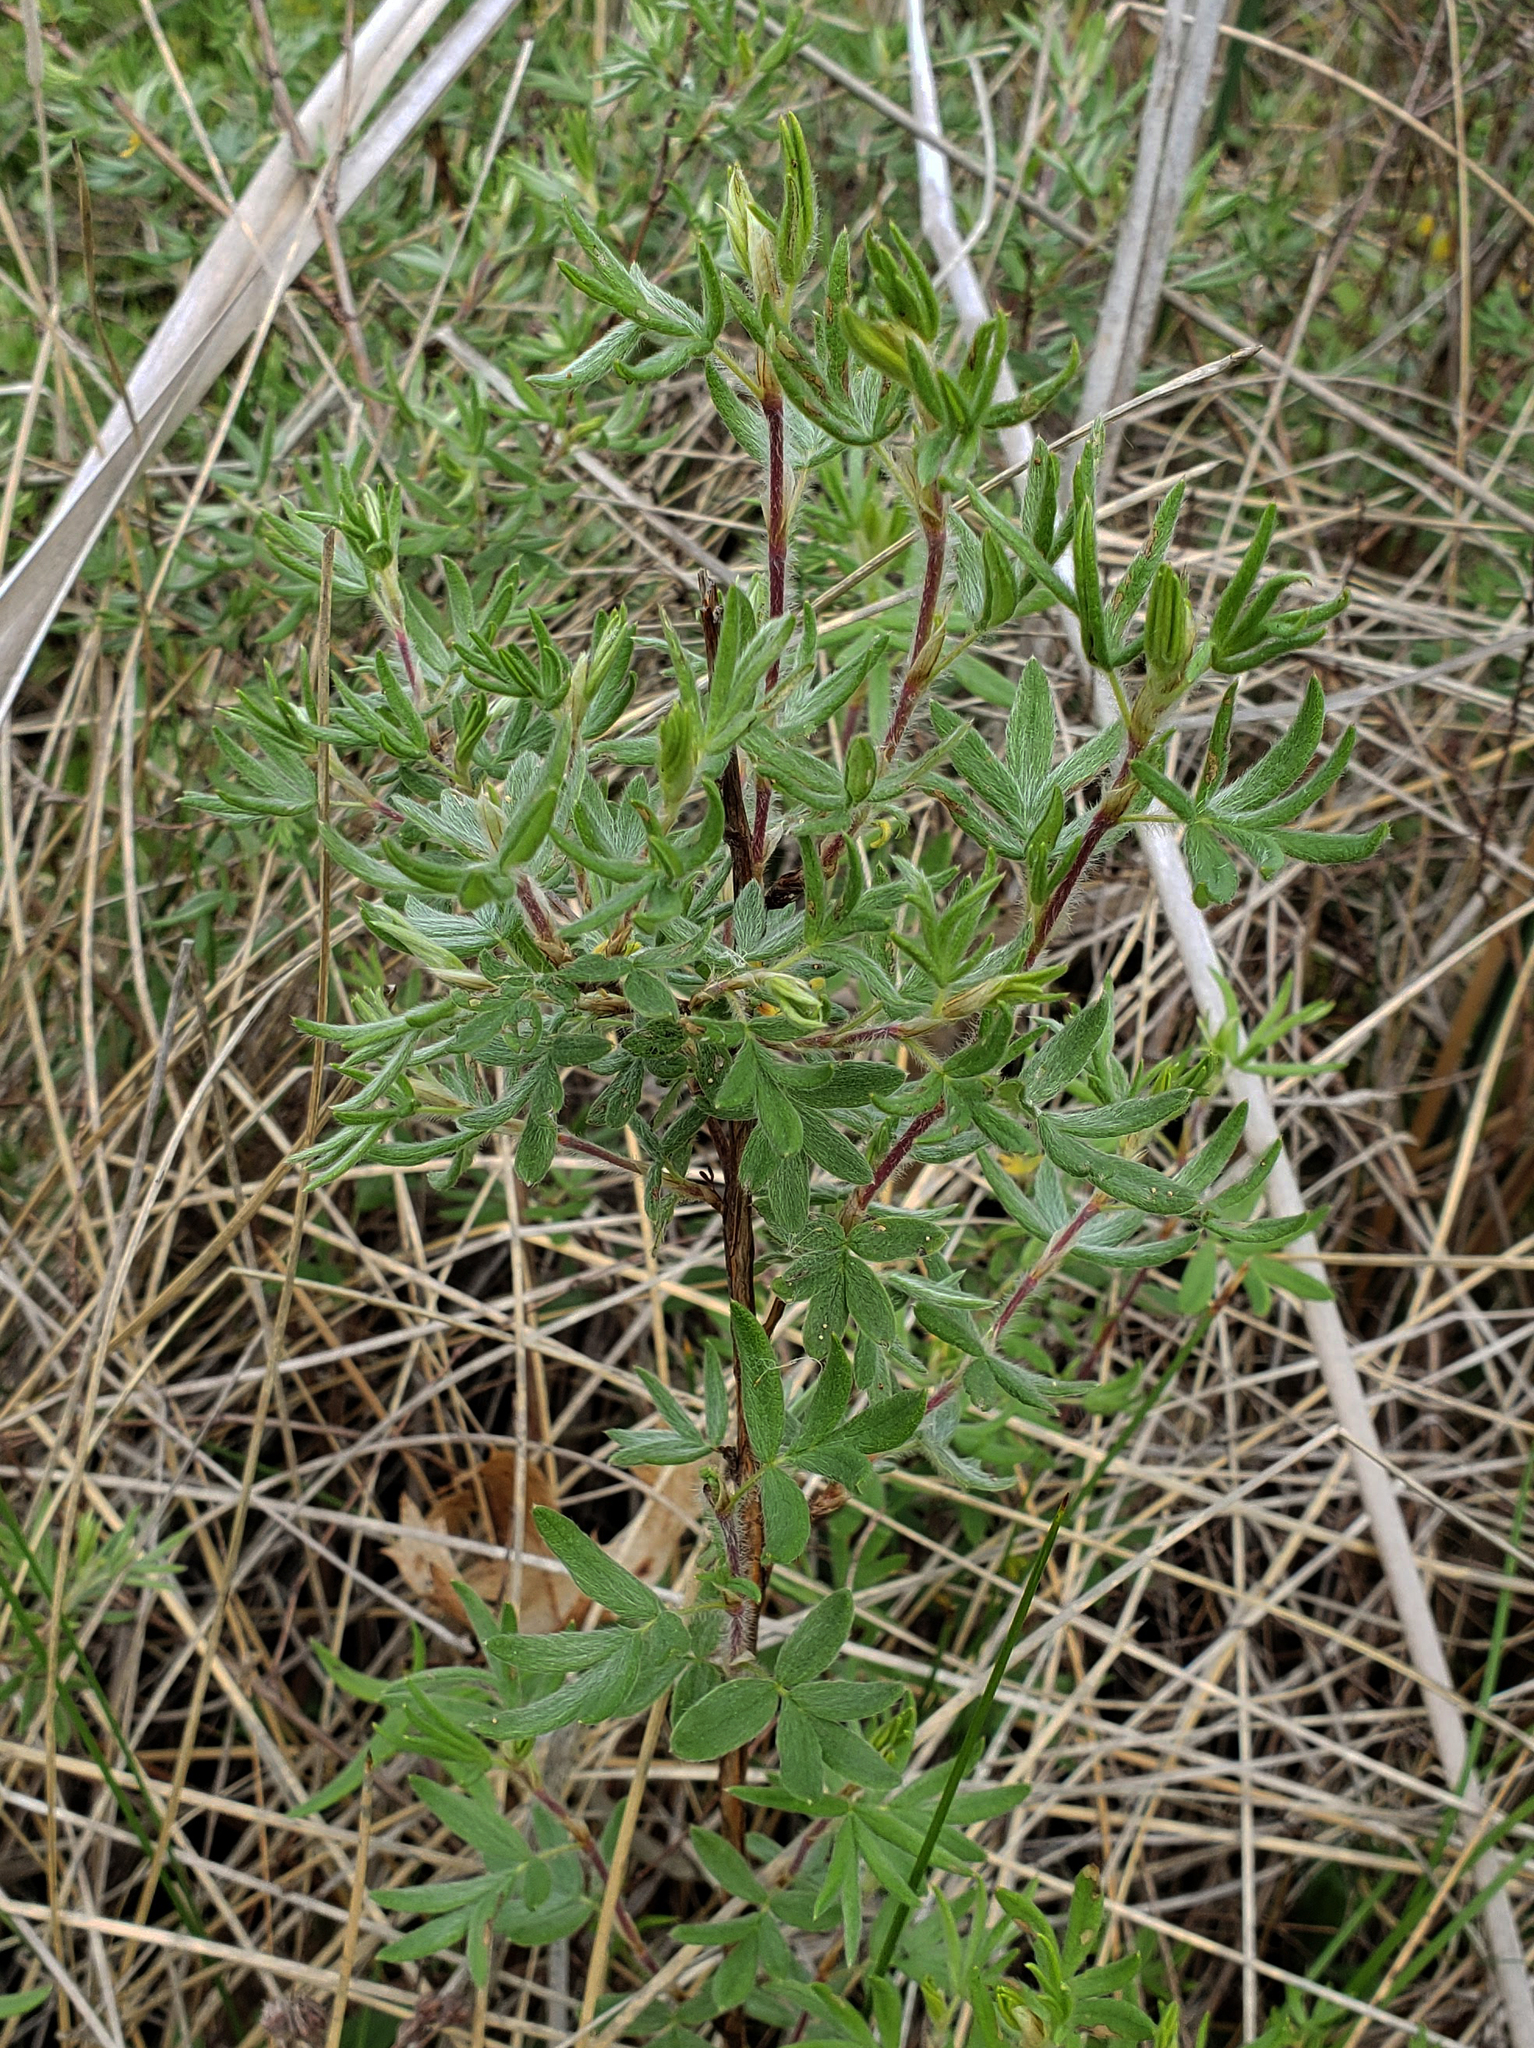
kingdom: Plantae
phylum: Tracheophyta
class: Magnoliopsida
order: Rosales
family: Rosaceae
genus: Dasiphora
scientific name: Dasiphora fruticosa
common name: Shrubby cinquefoil
